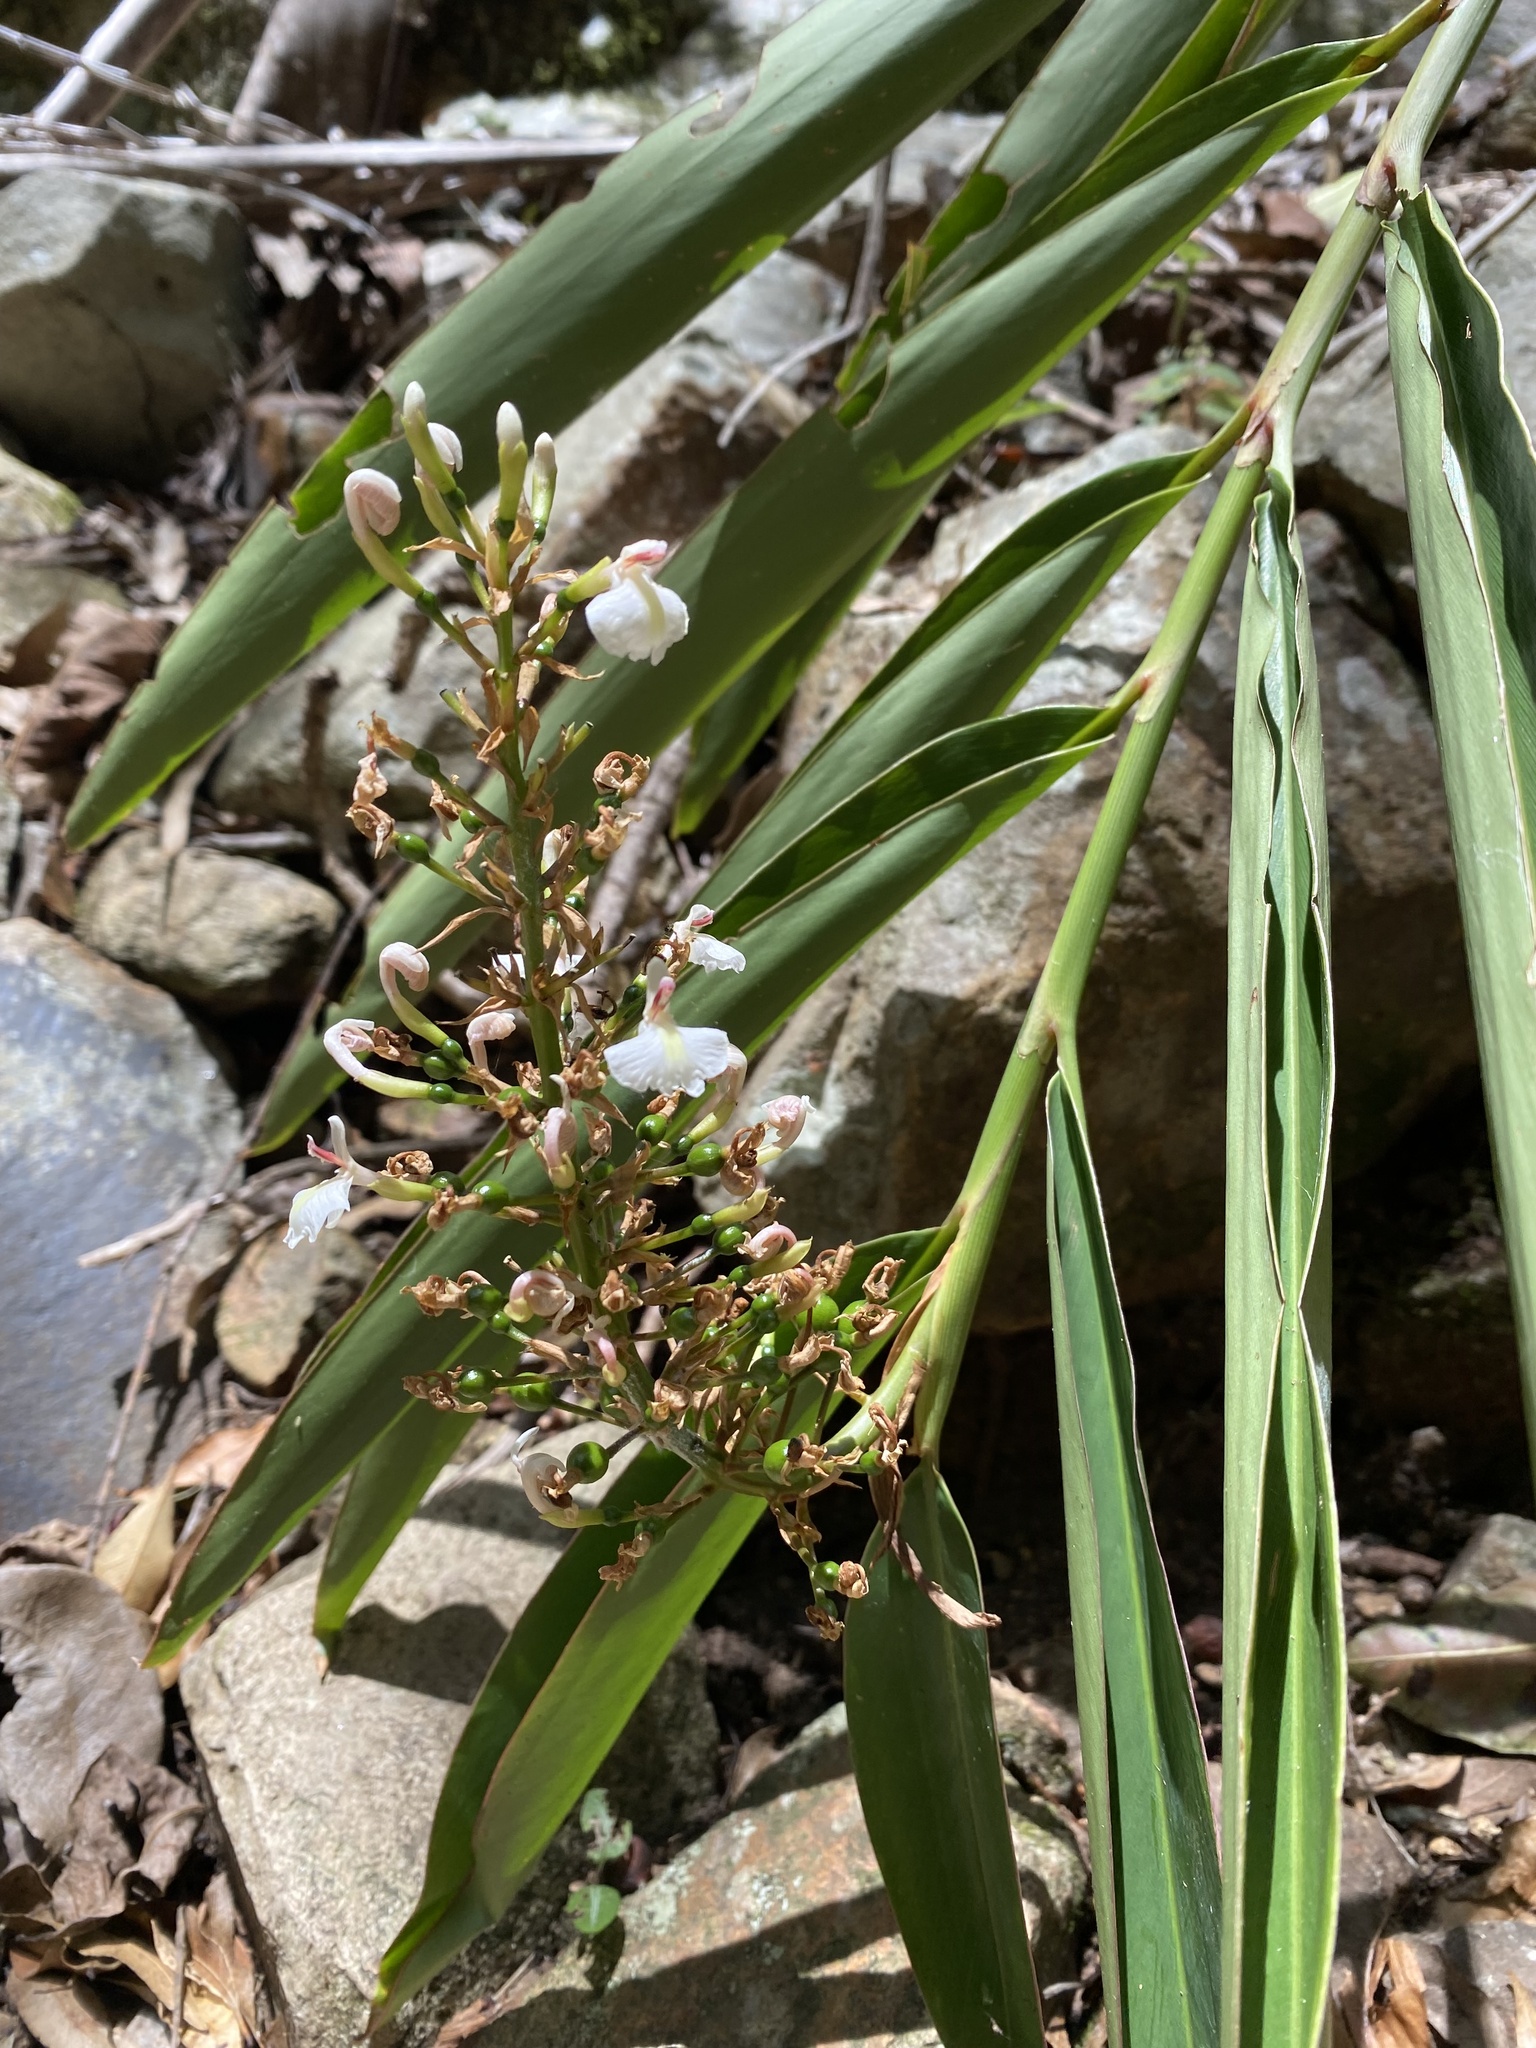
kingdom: Plantae
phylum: Tracheophyta
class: Liliopsida
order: Zingiberales
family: Zingiberaceae
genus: Alpinia
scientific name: Alpinia caerulea
